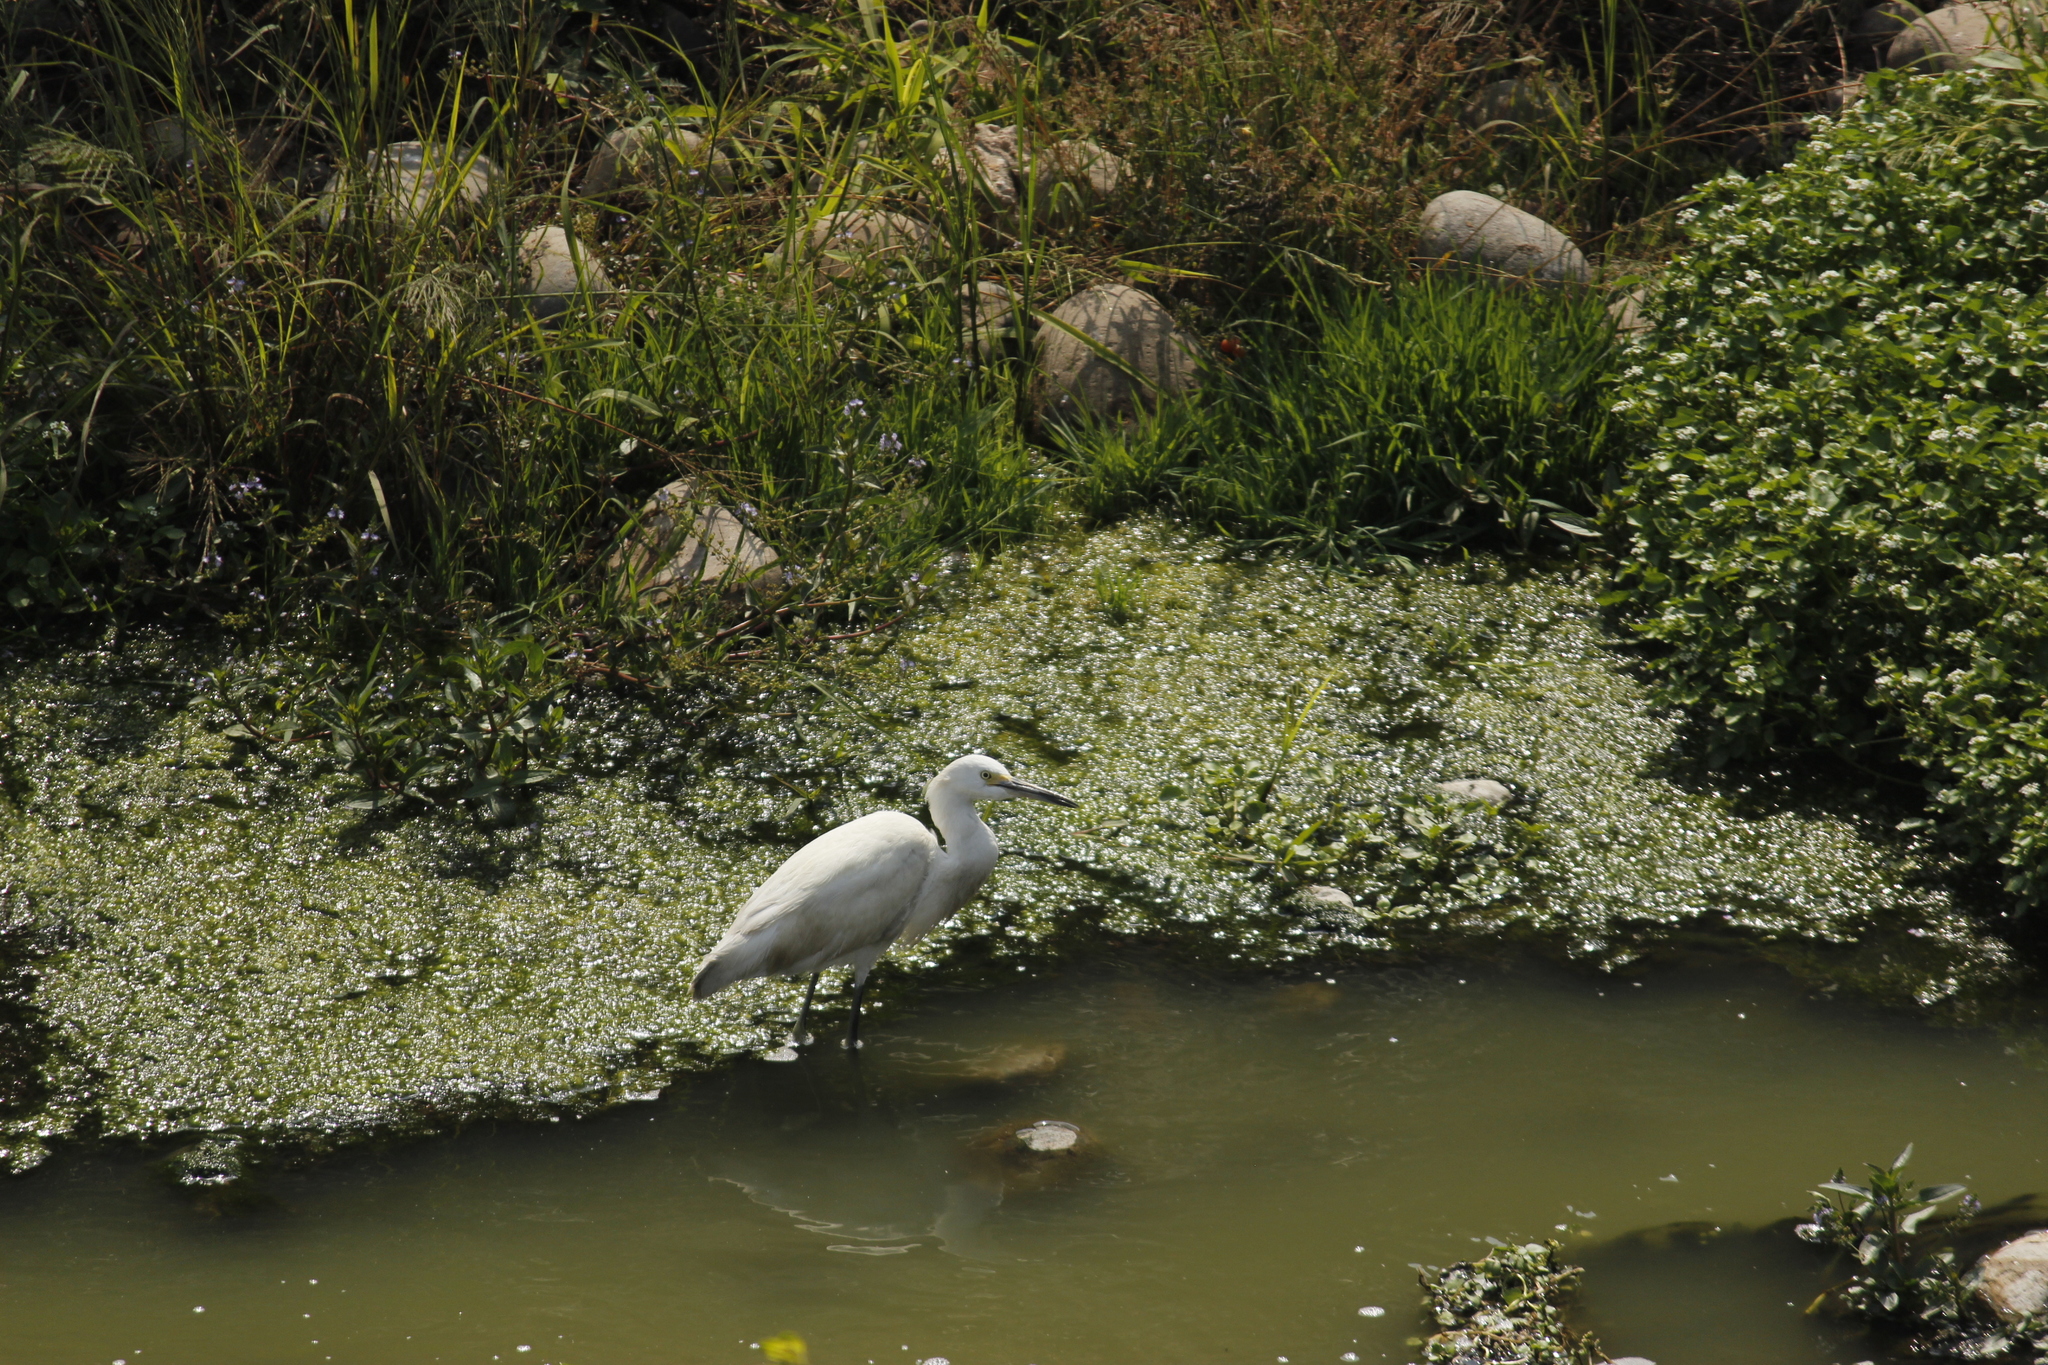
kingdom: Animalia
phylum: Chordata
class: Aves
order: Pelecaniformes
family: Ardeidae
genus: Egretta
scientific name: Egretta thula
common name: Snowy egret
